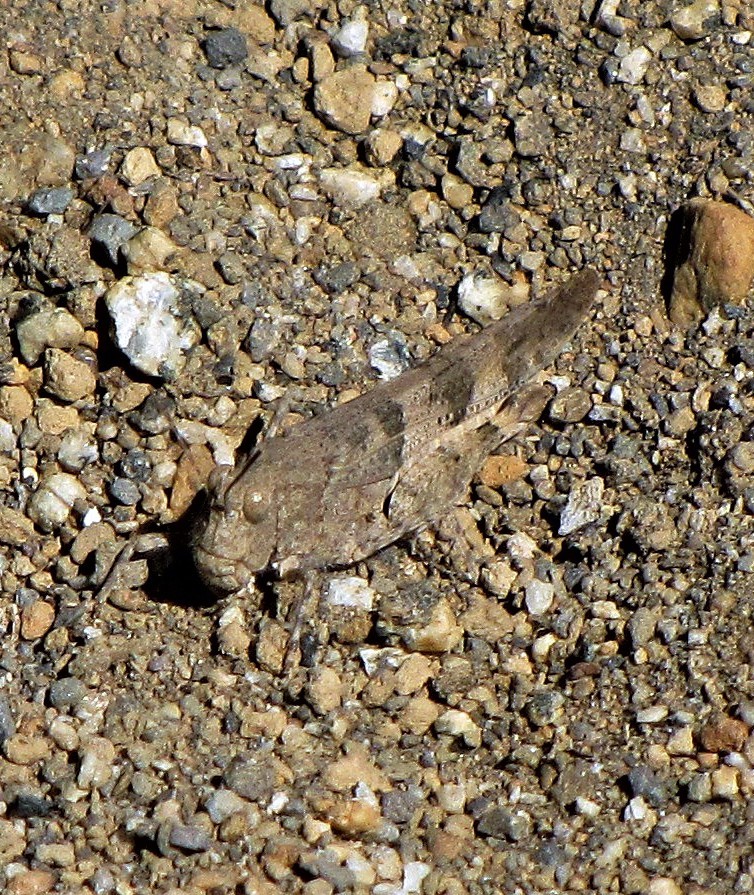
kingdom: Animalia
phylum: Arthropoda
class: Insecta
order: Orthoptera
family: Acrididae
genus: Trimerotropis
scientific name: Trimerotropis pallidipennis
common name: Pallid-winged grasshopper
